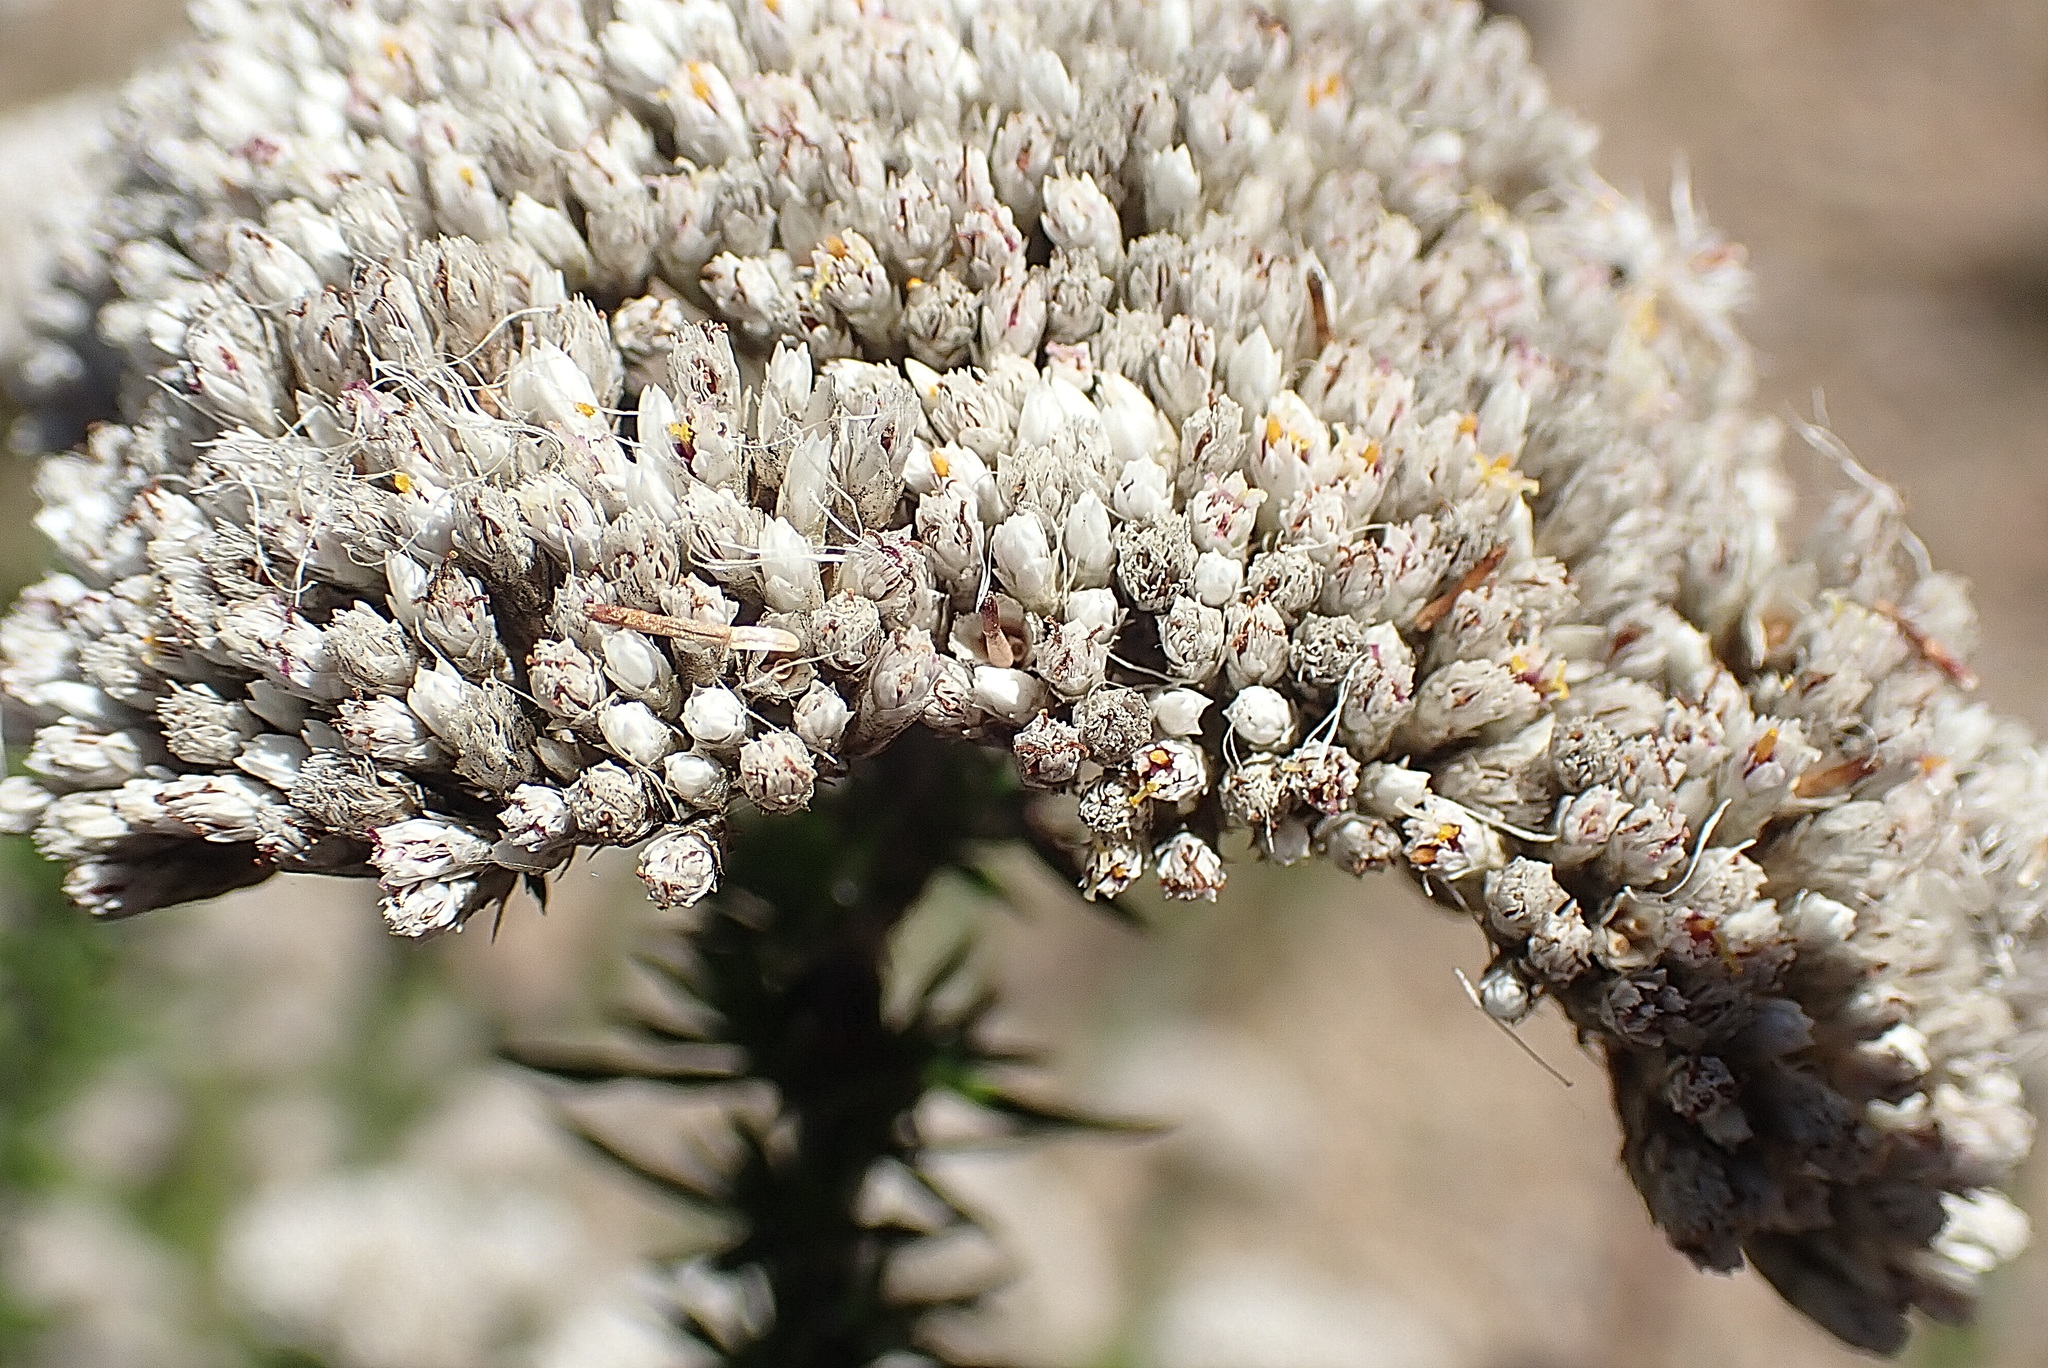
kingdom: Plantae
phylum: Tracheophyta
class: Magnoliopsida
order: Asterales
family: Asteraceae
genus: Metalasia
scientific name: Metalasia trivialis
